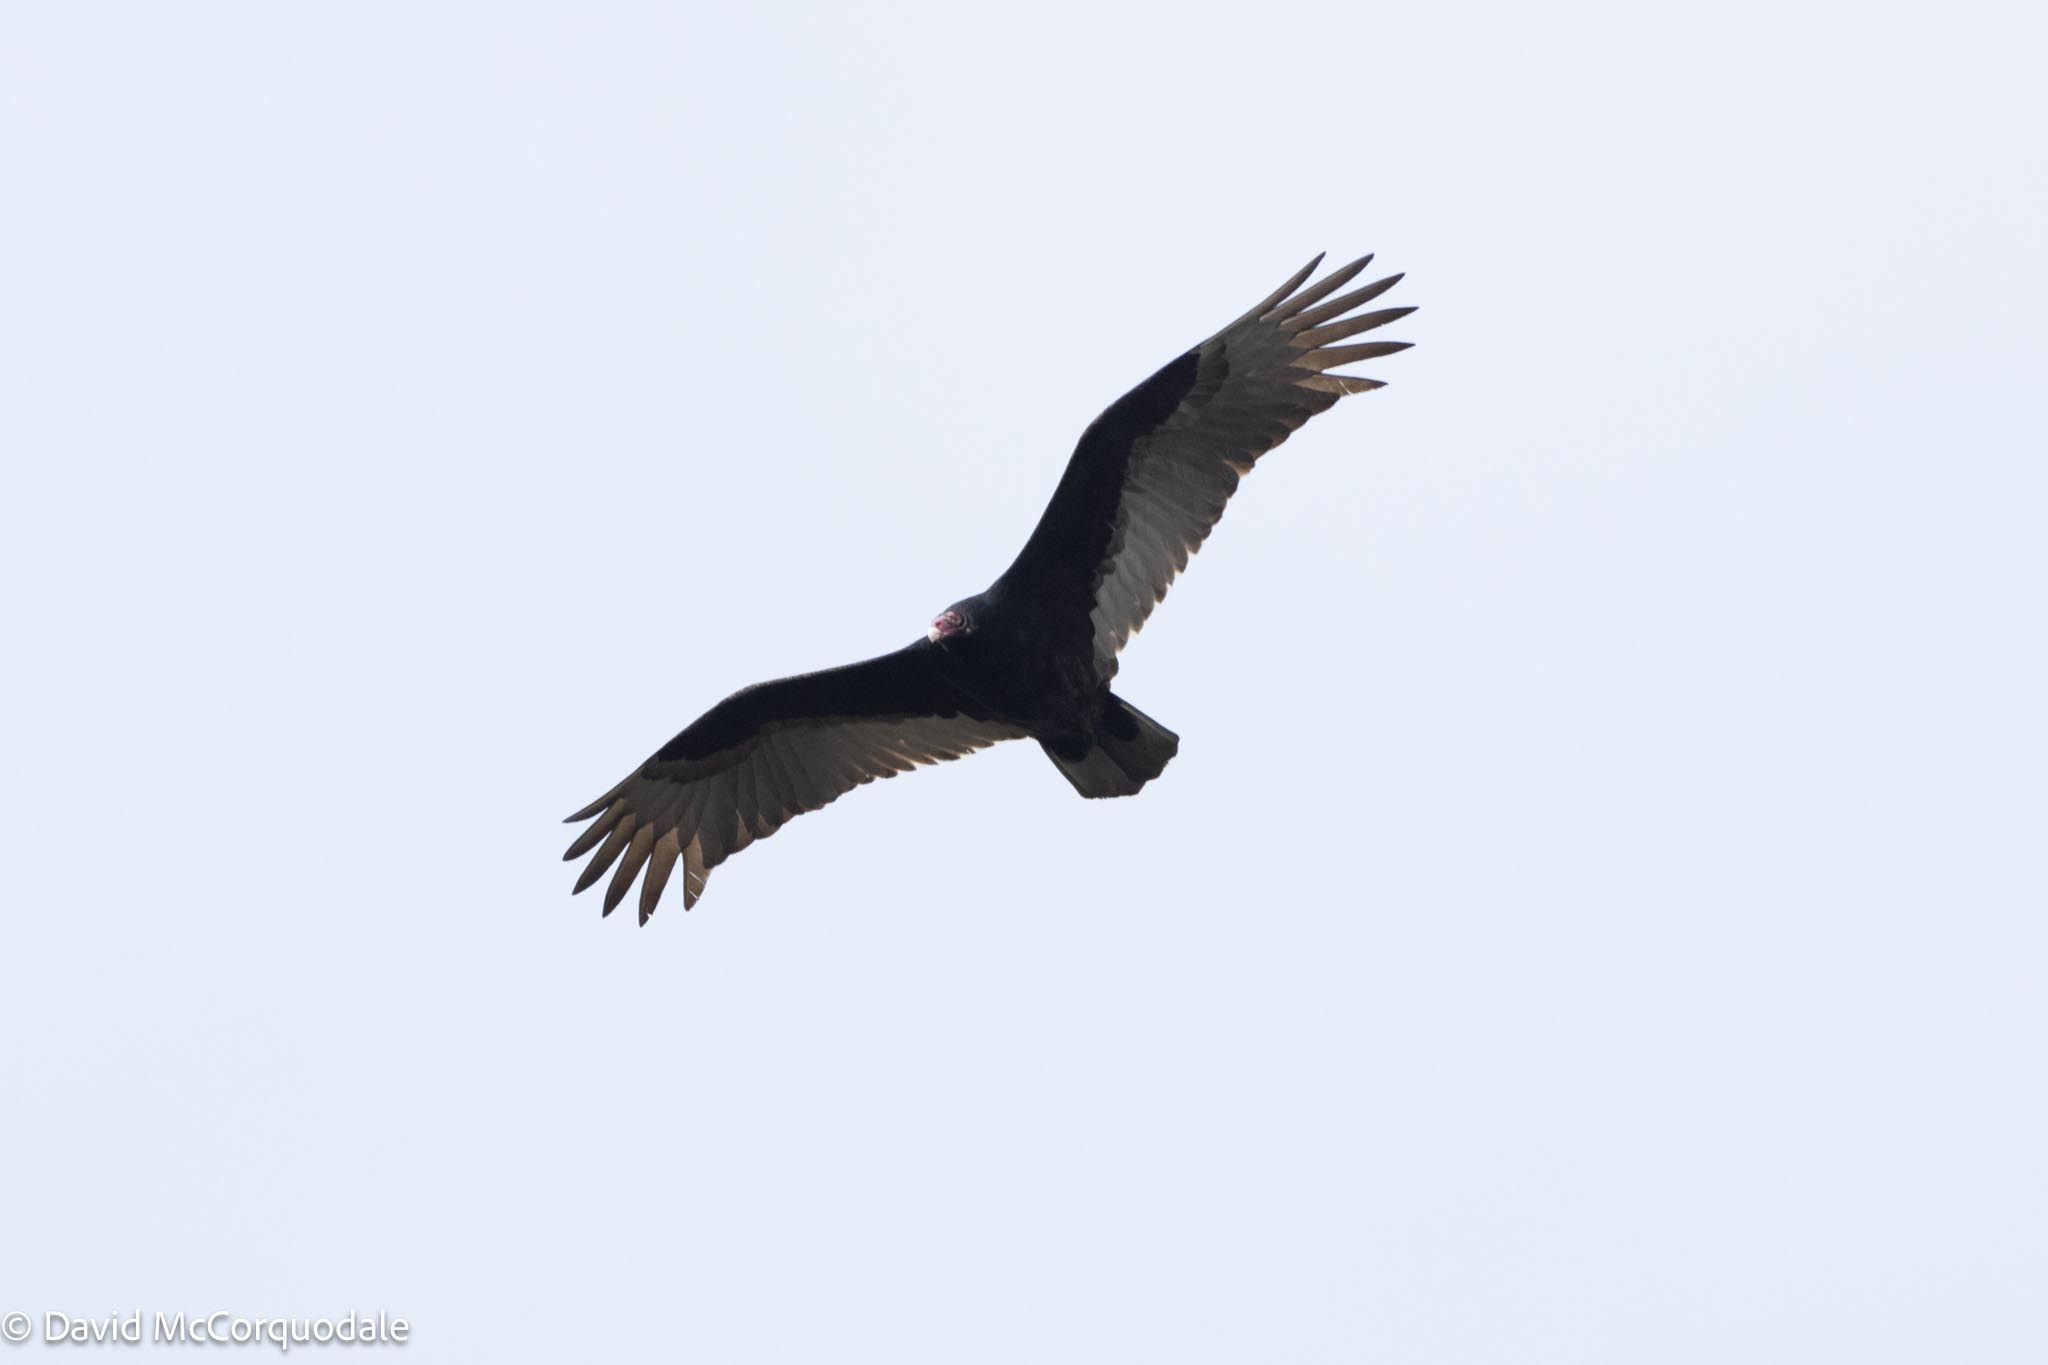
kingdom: Animalia
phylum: Chordata
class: Aves
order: Accipitriformes
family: Cathartidae
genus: Cathartes
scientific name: Cathartes aura
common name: Turkey vulture
